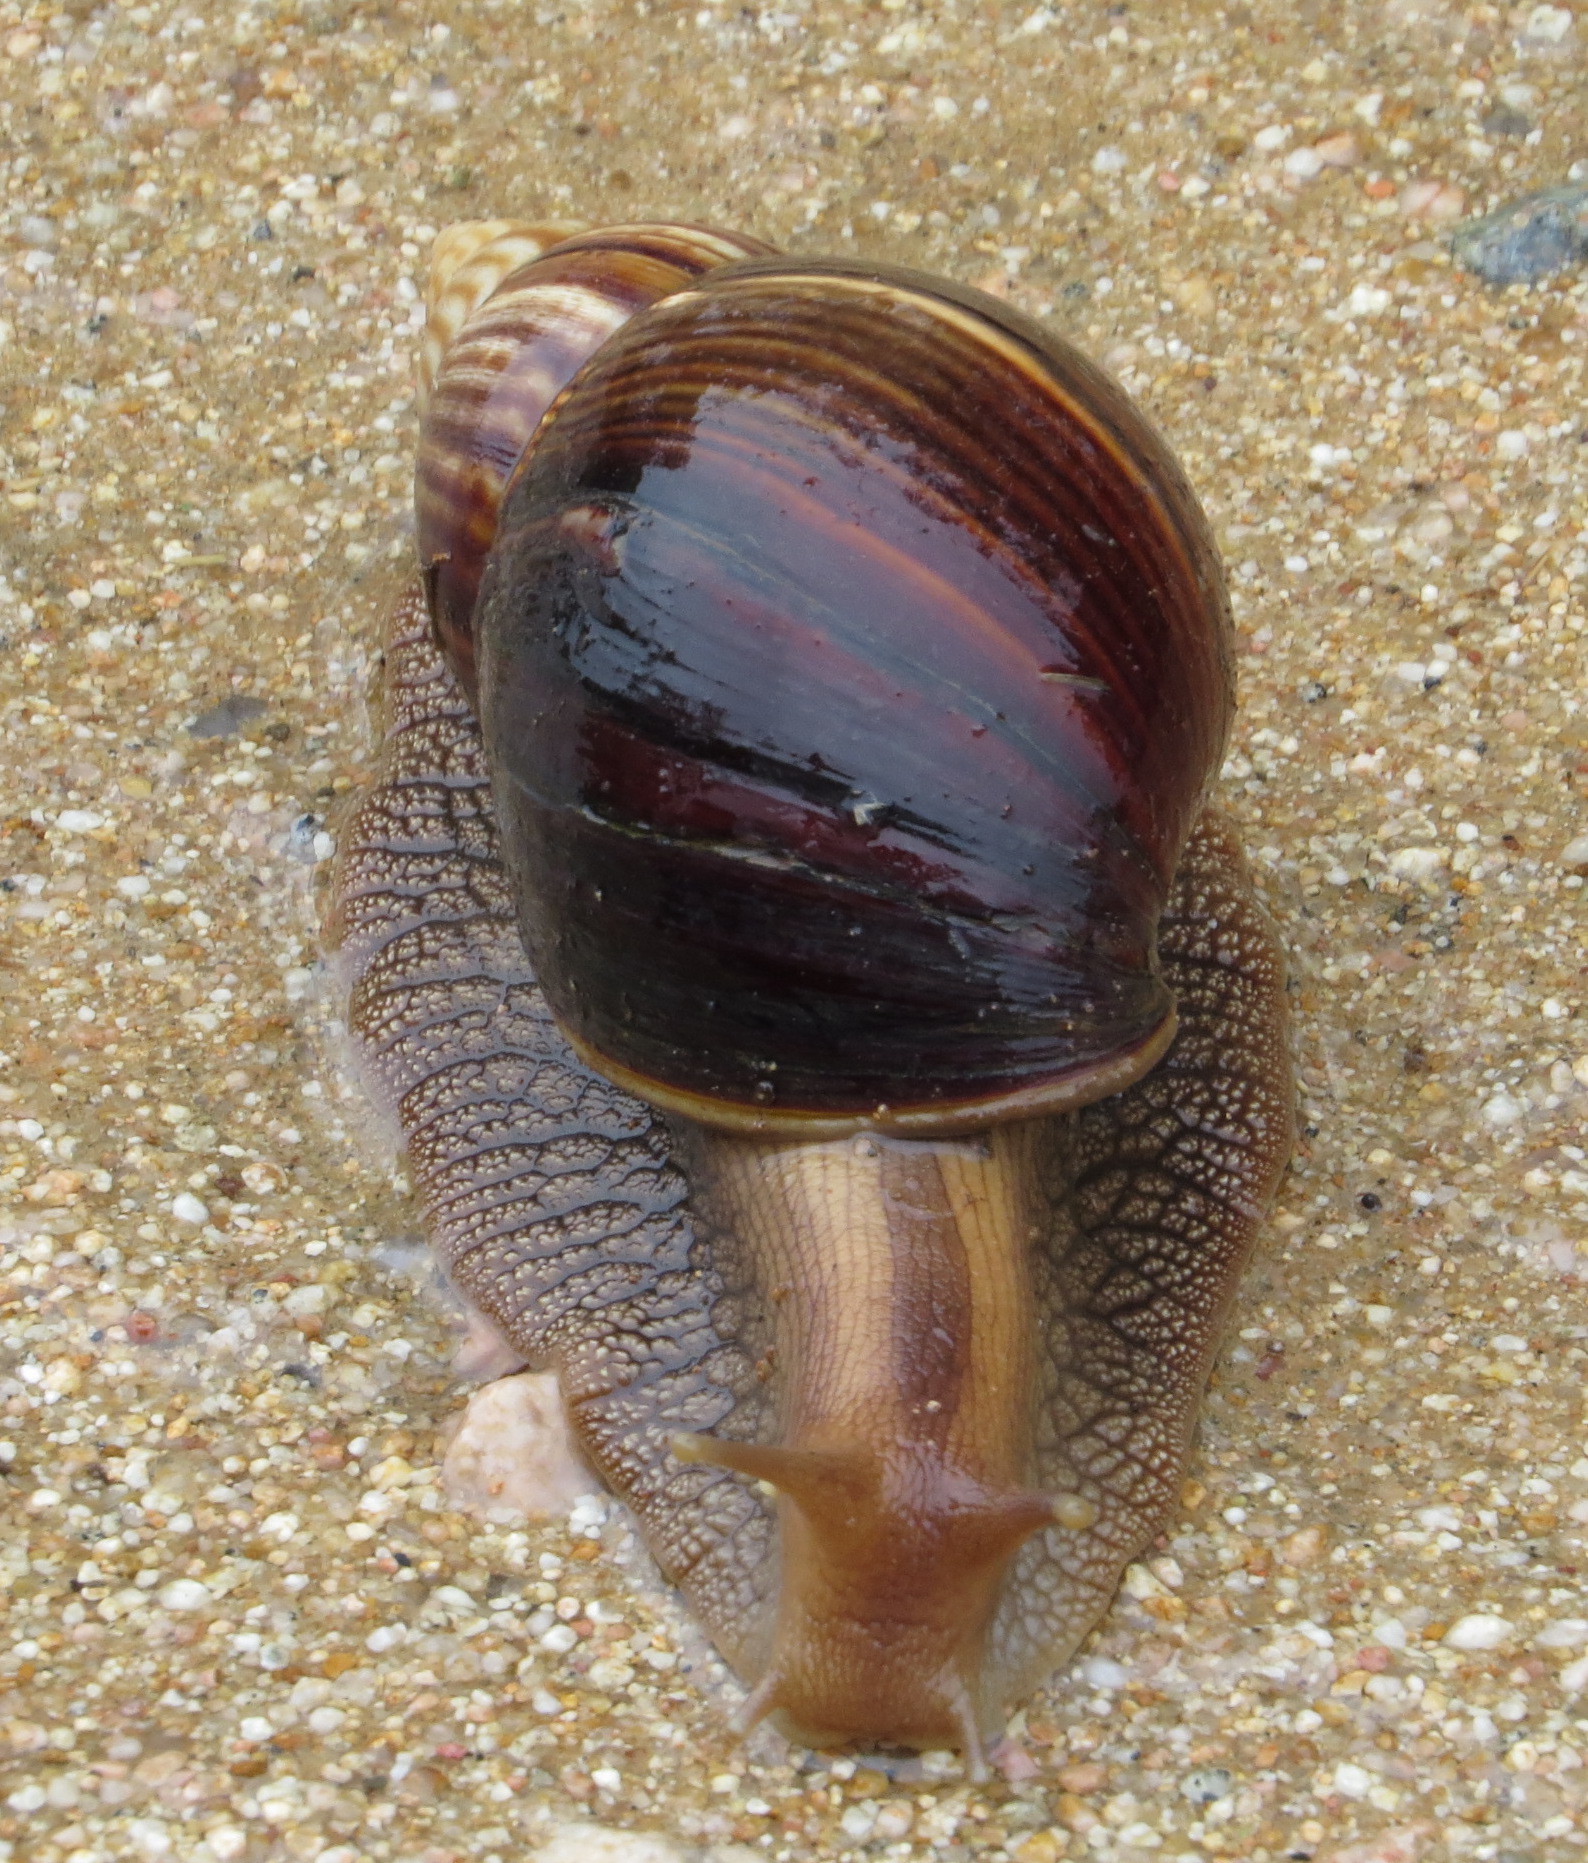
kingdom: Animalia
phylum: Mollusca
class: Gastropoda
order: Stylommatophora
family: Achatinidae
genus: Lissachatina
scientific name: Lissachatina immaculata
